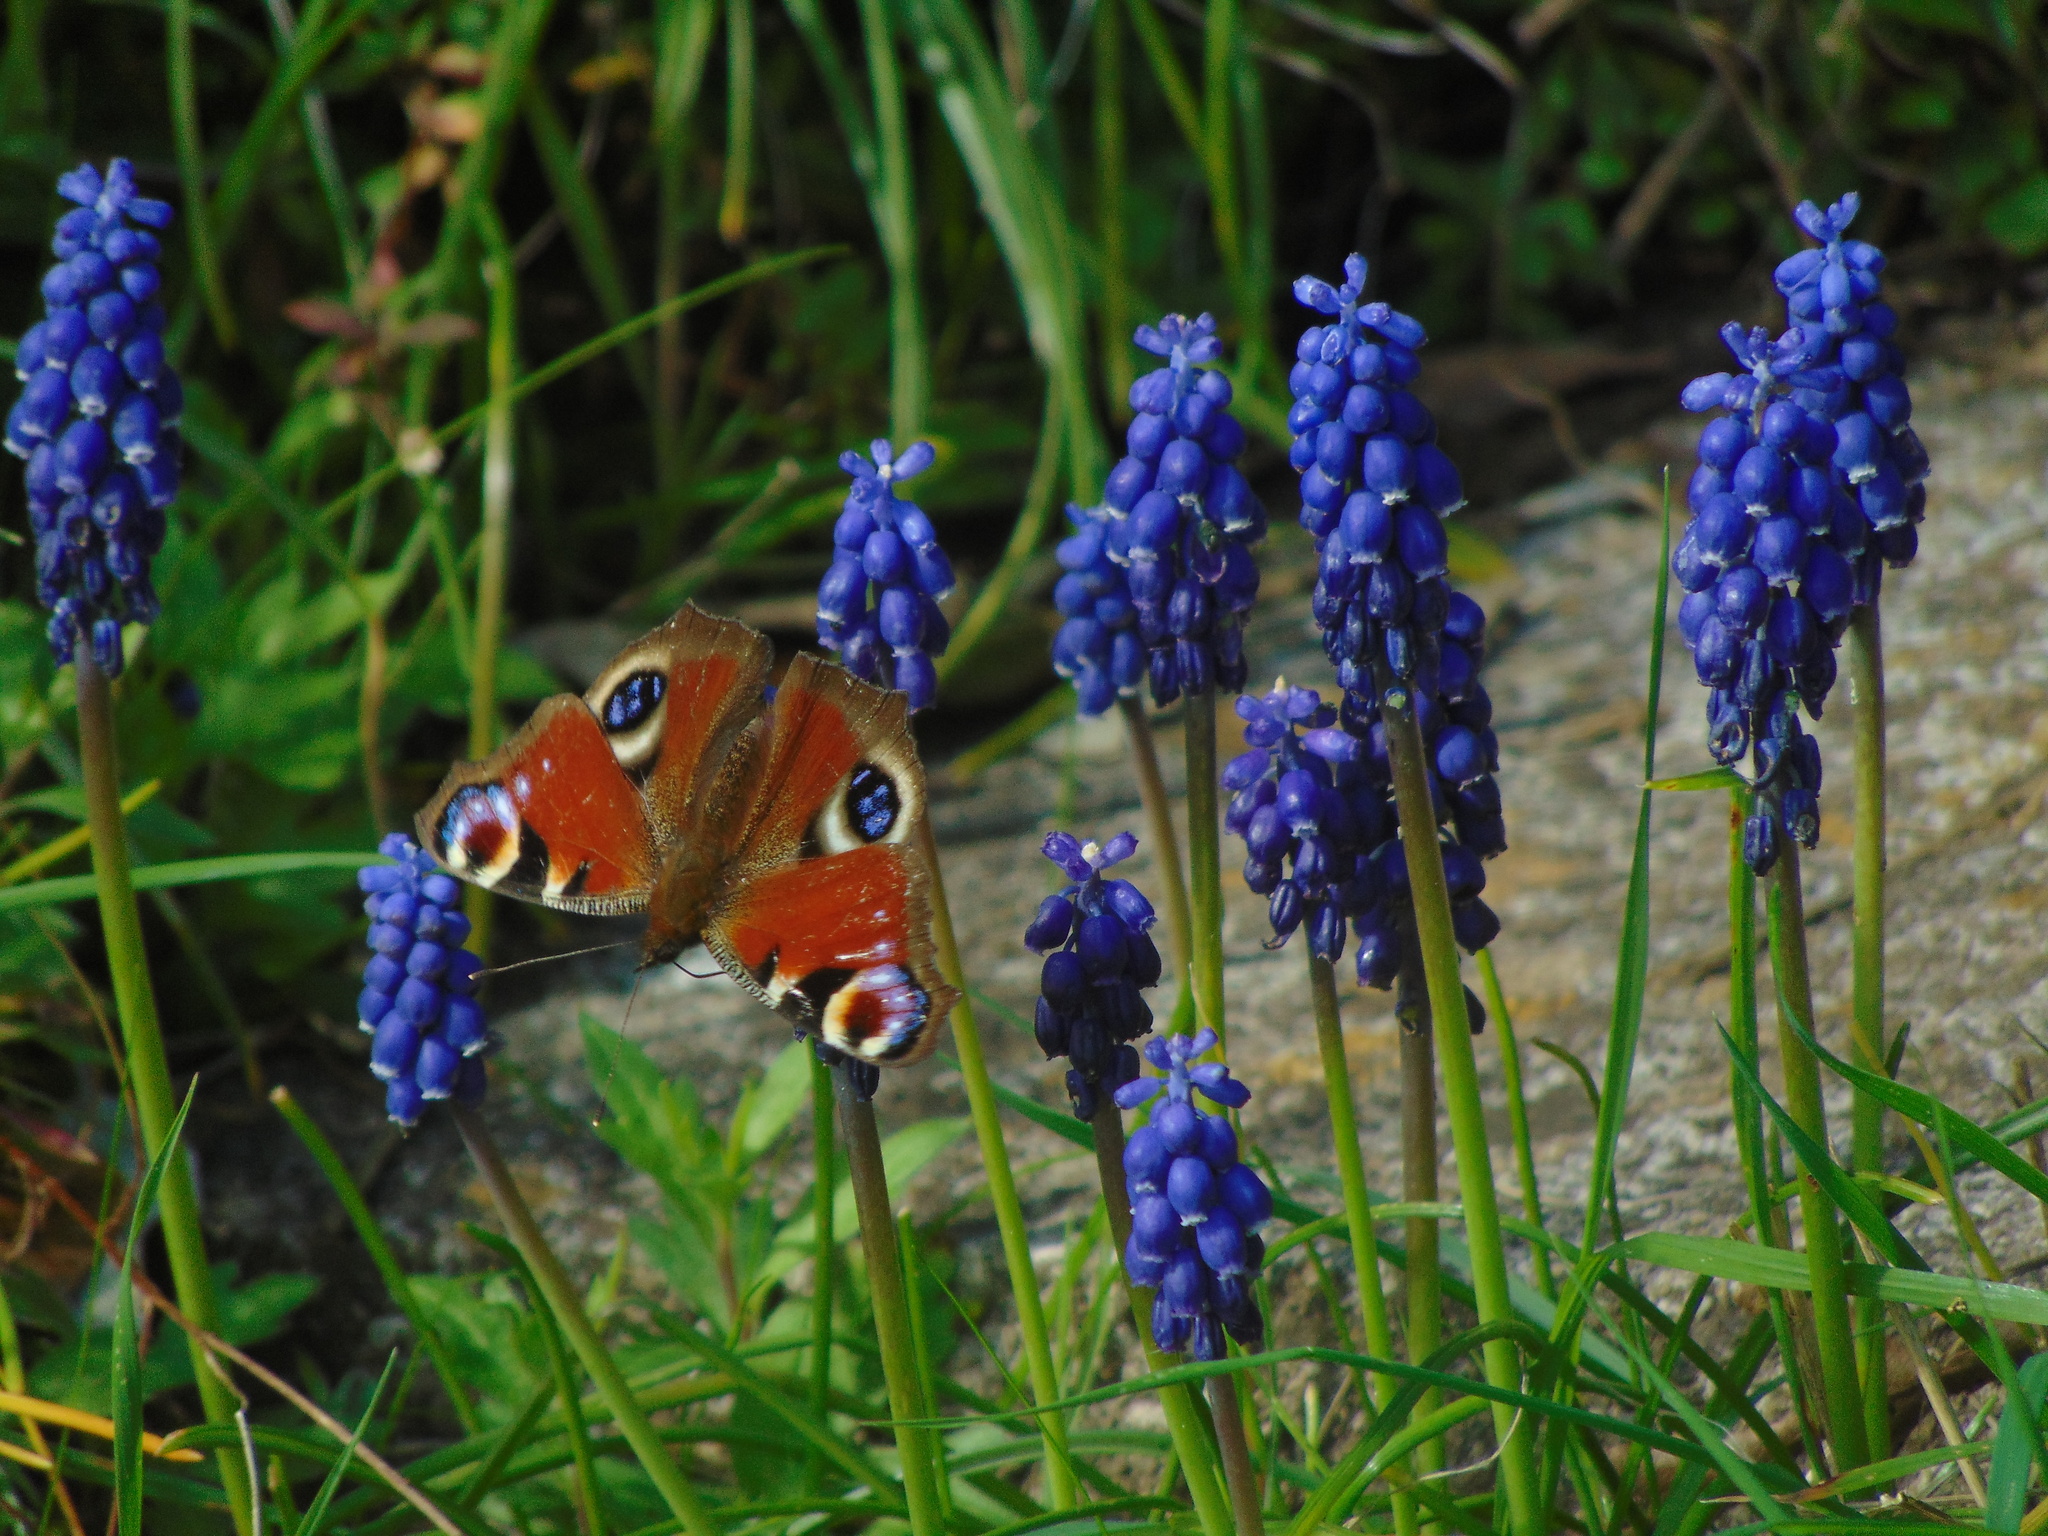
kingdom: Animalia
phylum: Arthropoda
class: Insecta
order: Lepidoptera
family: Nymphalidae
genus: Aglais
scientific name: Aglais io
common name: Peacock
